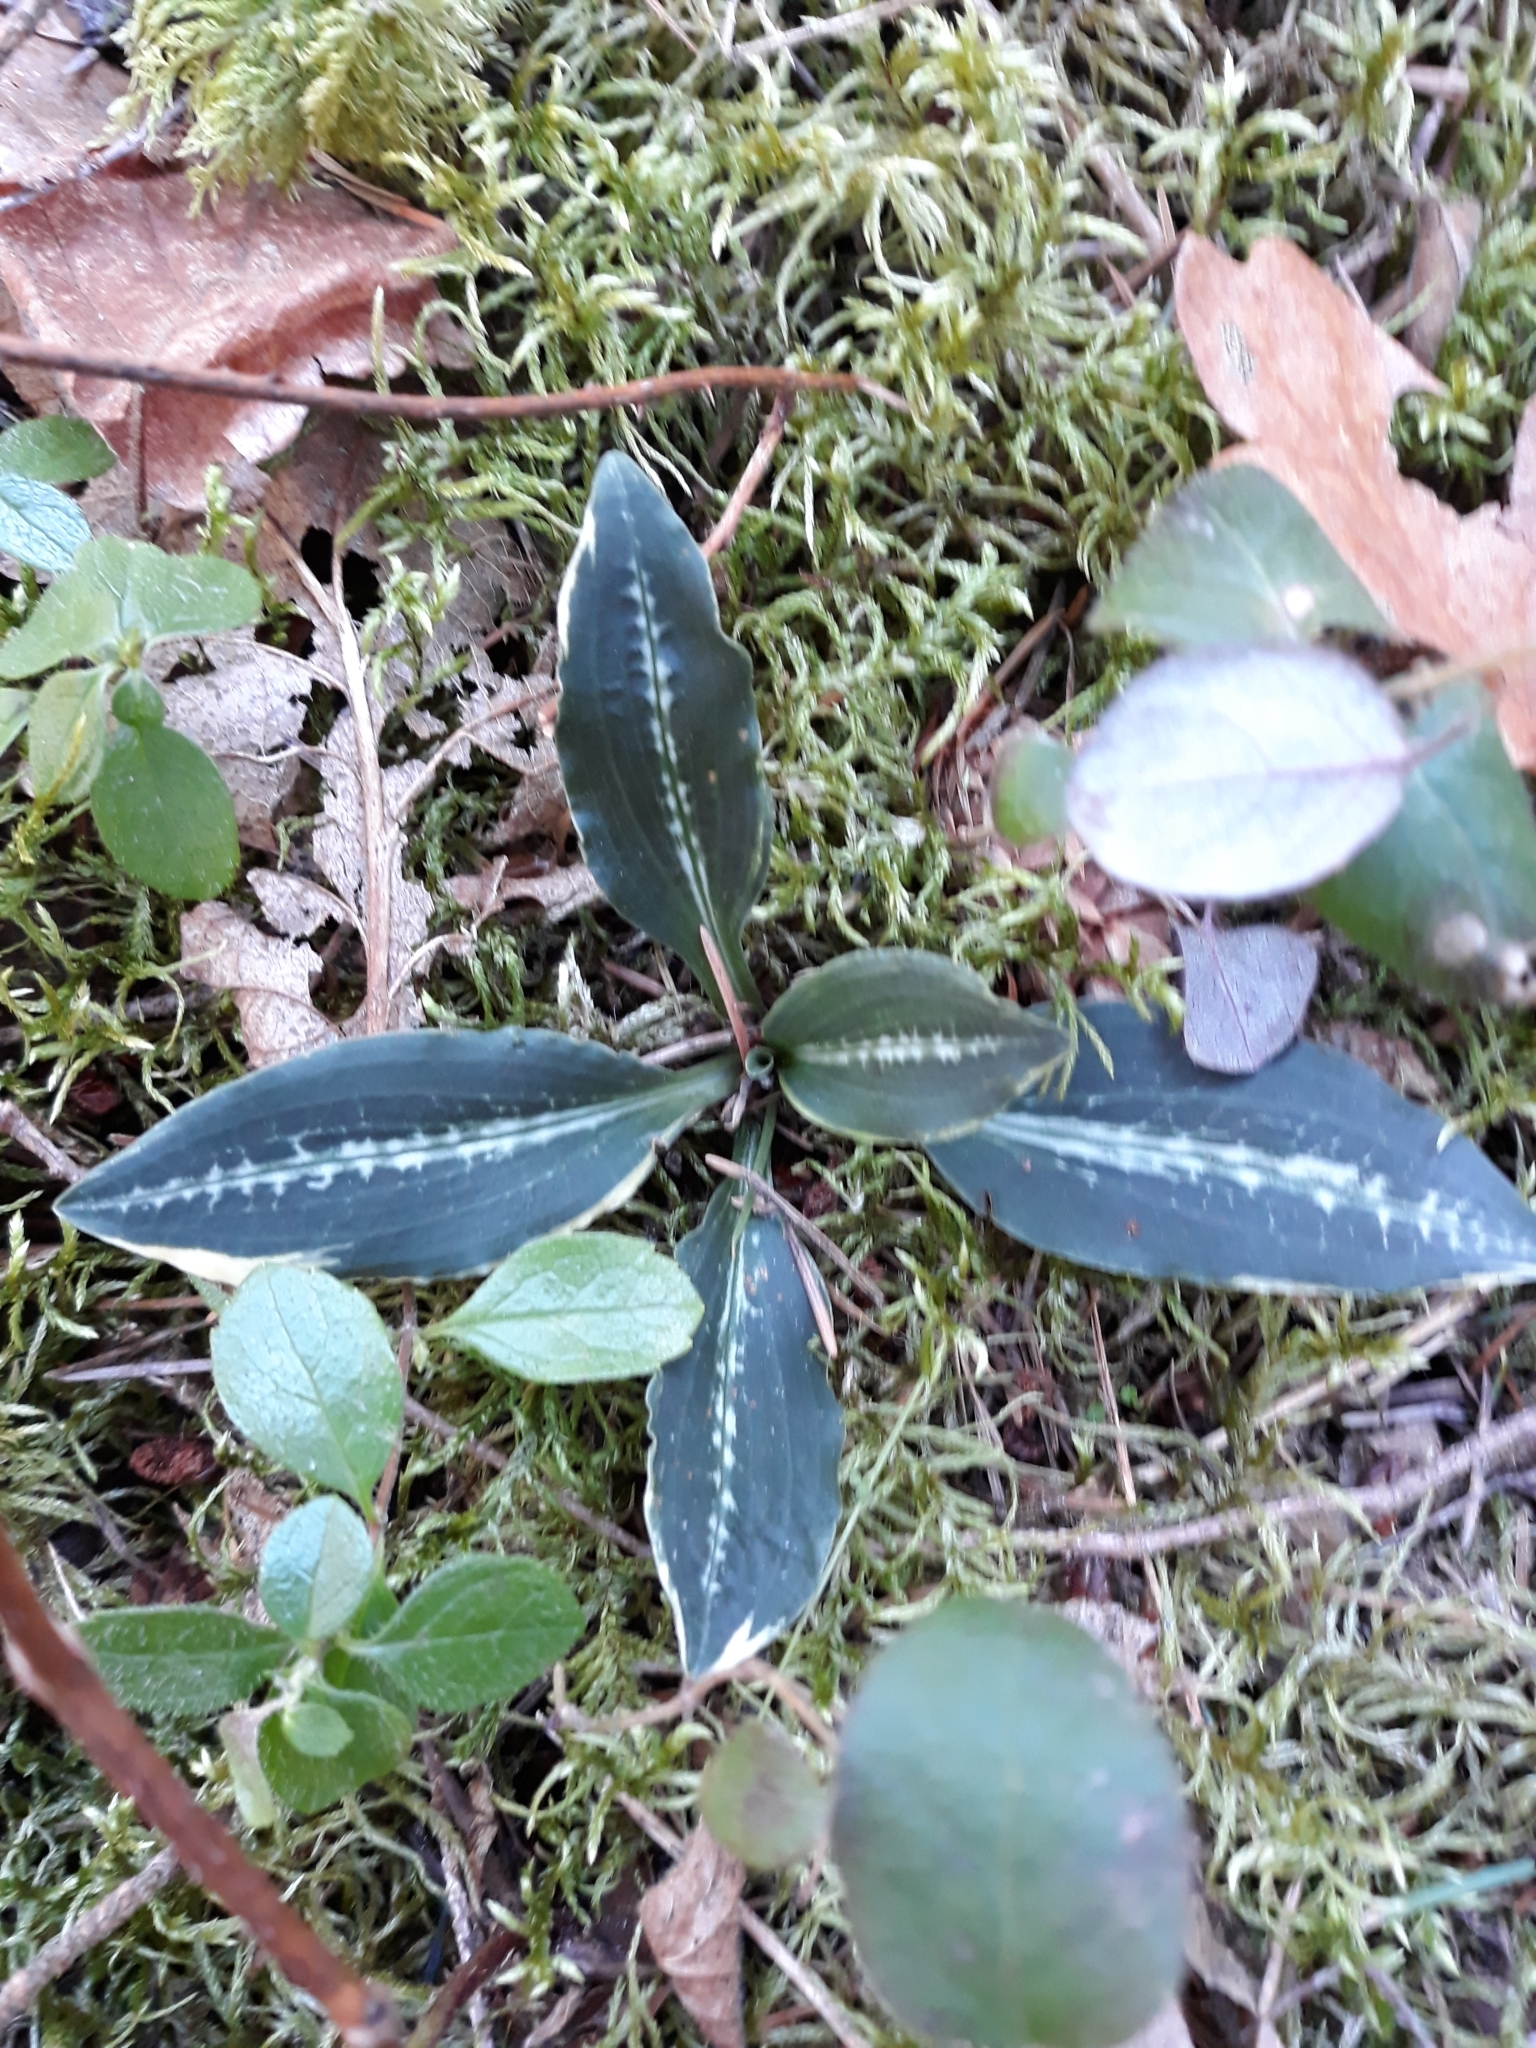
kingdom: Plantae
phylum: Tracheophyta
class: Liliopsida
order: Asparagales
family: Orchidaceae
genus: Goodyera
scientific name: Goodyera oblongifolia
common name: Giant rattlesnake-plantain
